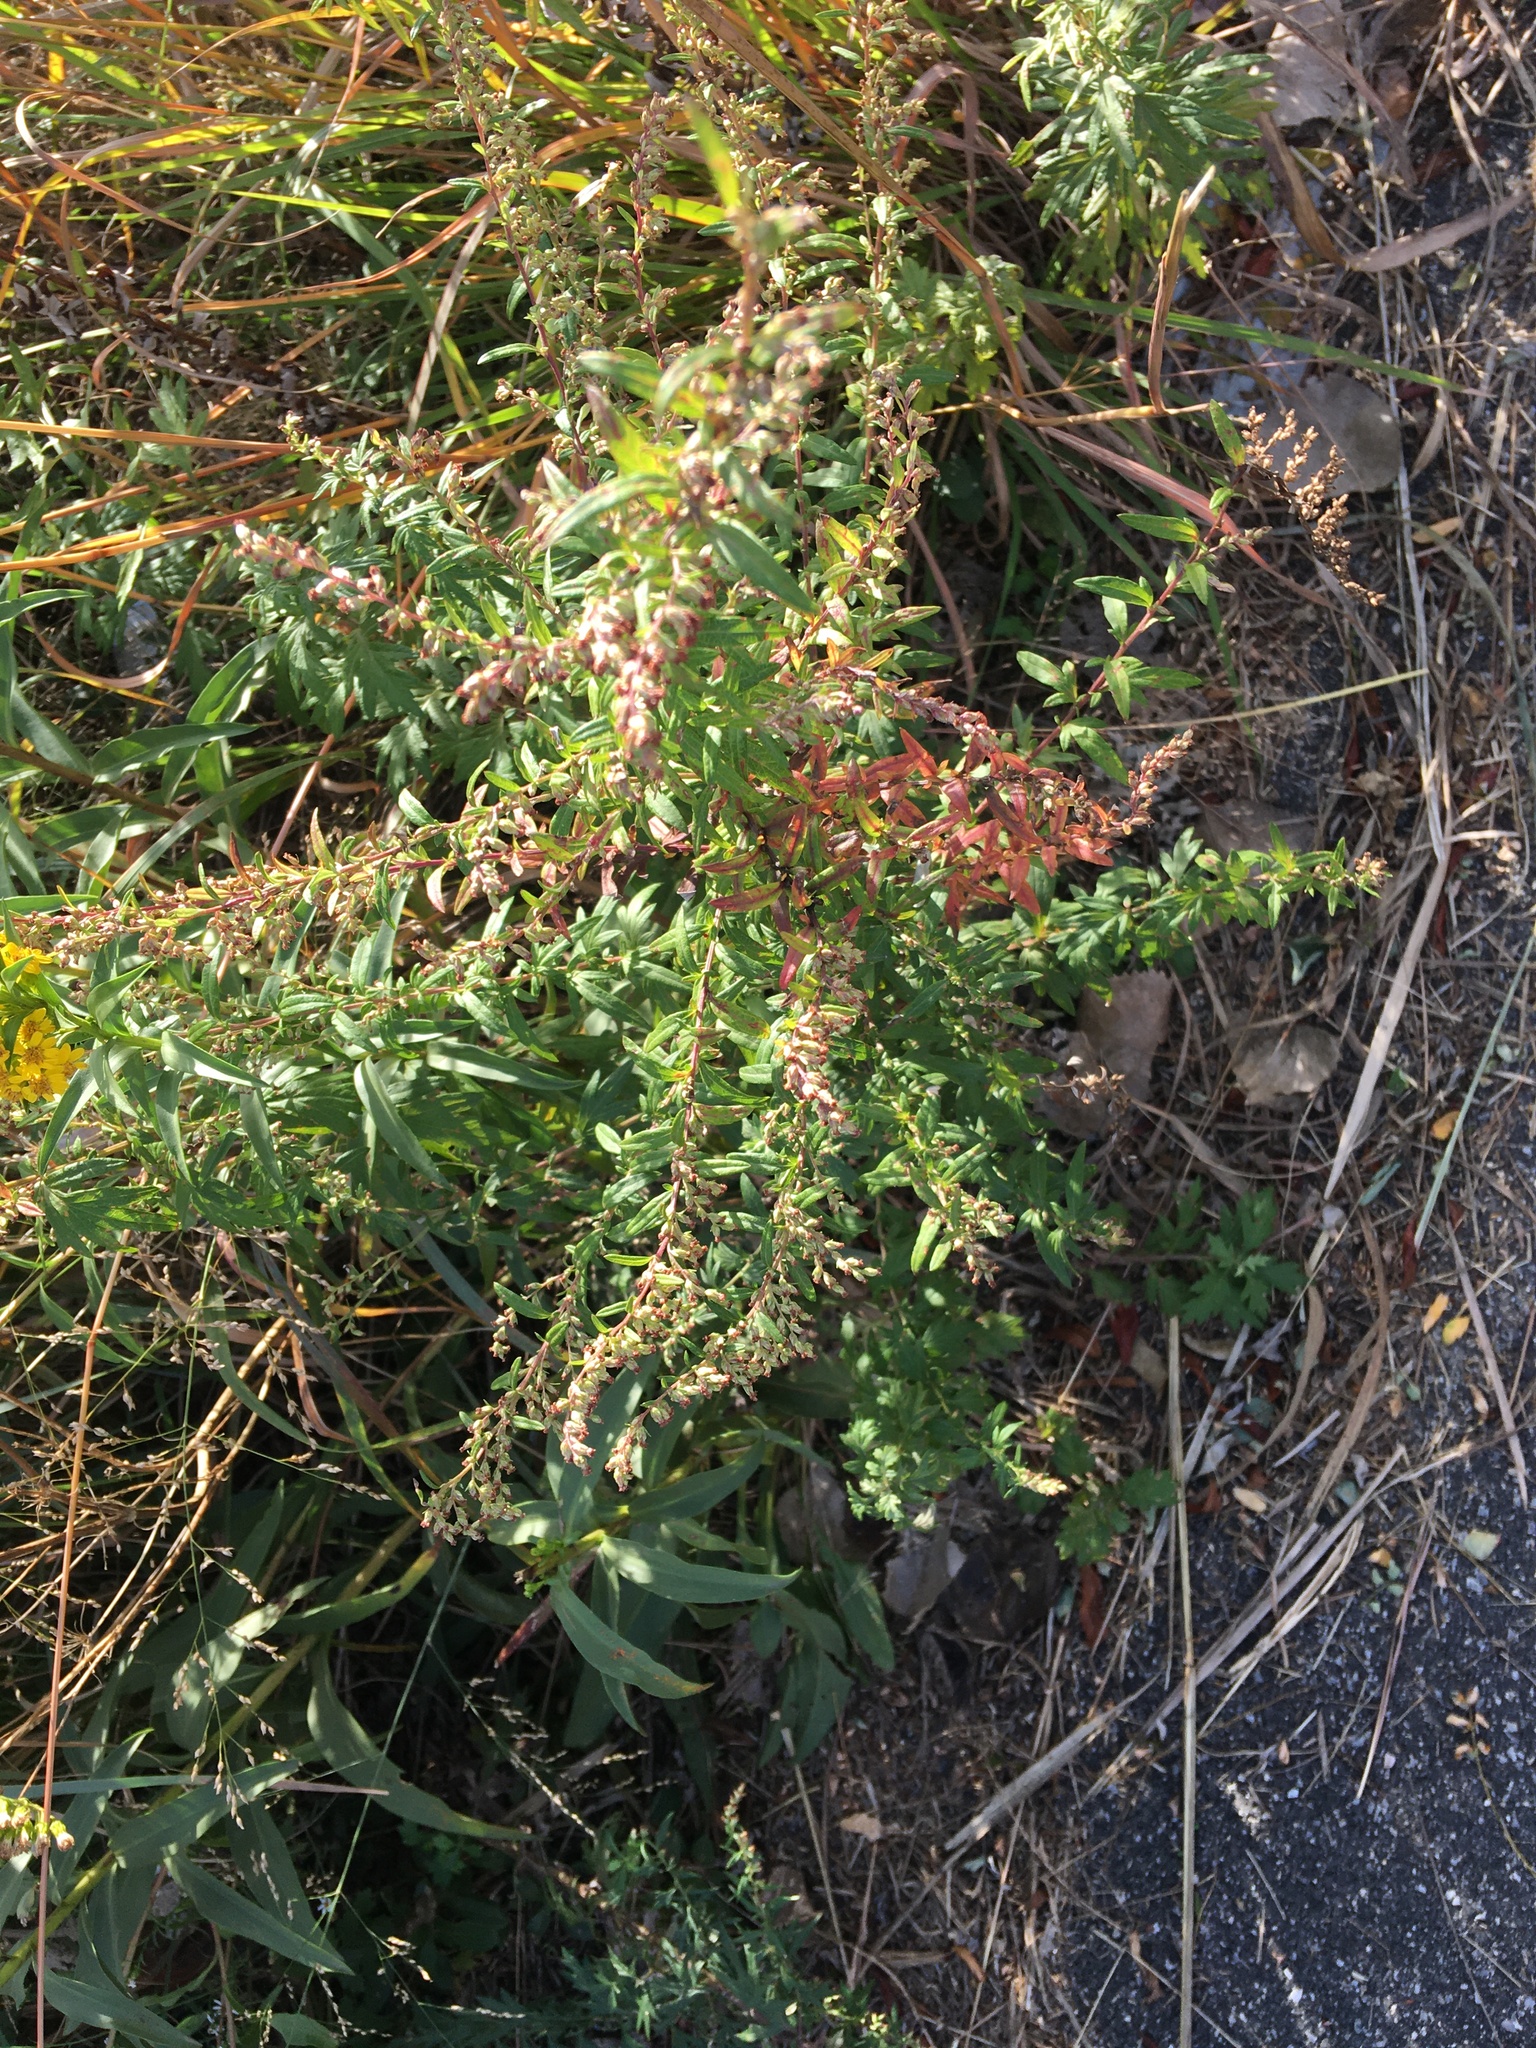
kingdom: Plantae
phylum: Tracheophyta
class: Magnoliopsida
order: Asterales
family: Asteraceae
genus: Artemisia
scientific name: Artemisia vulgaris
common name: Mugwort
